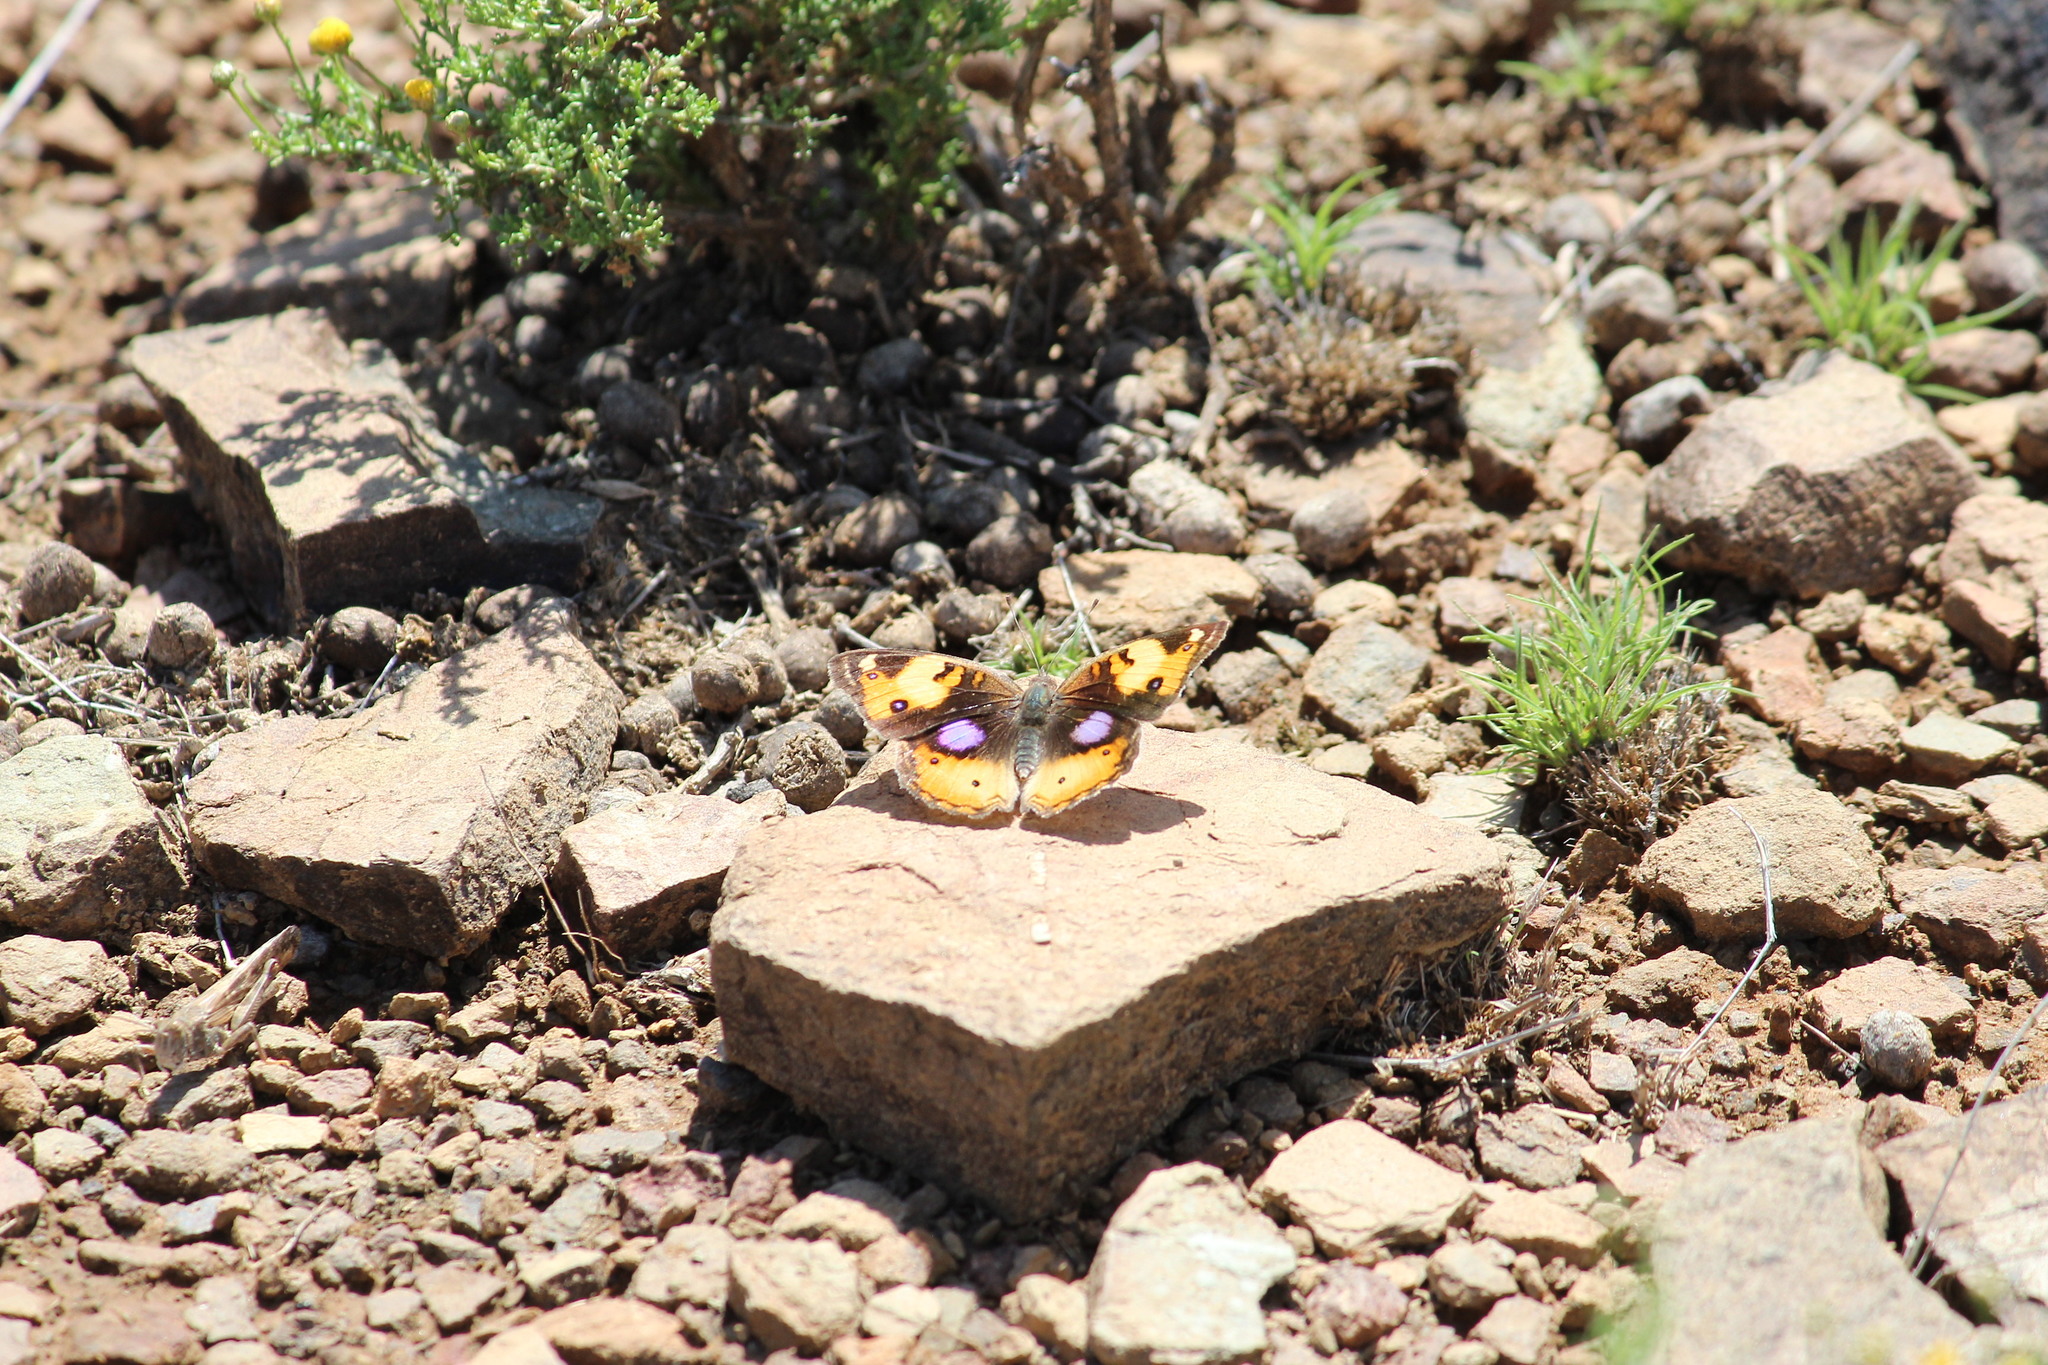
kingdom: Animalia
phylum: Arthropoda
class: Insecta
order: Lepidoptera
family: Nymphalidae
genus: Junonia
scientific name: Junonia hierta
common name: Yellow pansy
